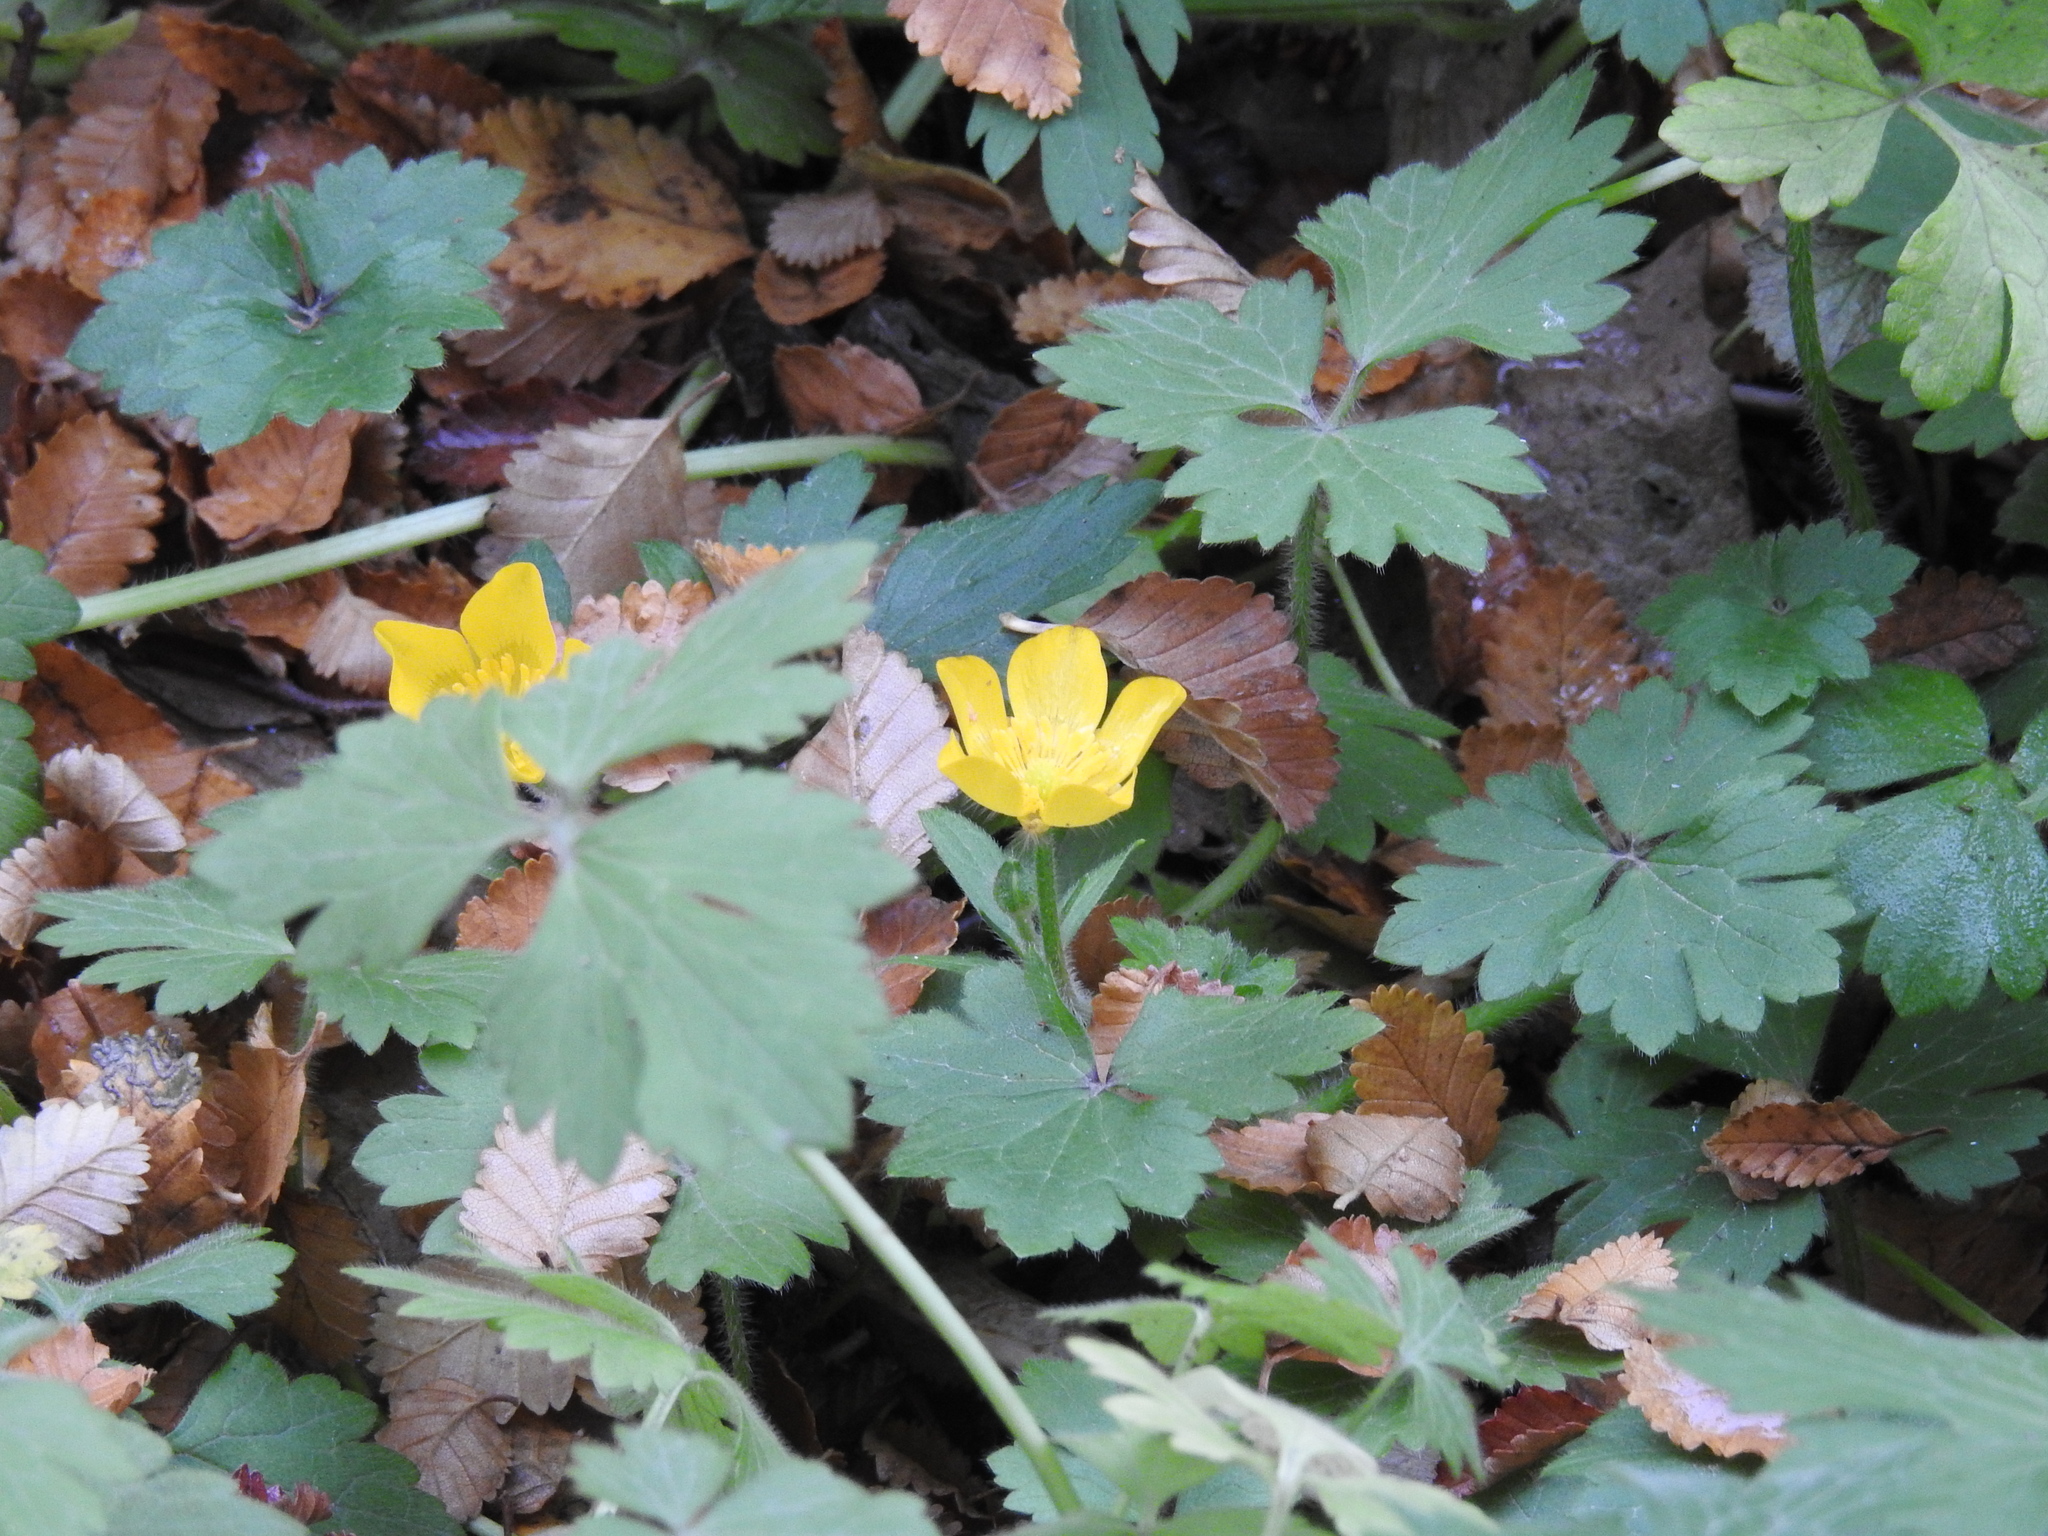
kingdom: Plantae
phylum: Tracheophyta
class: Magnoliopsida
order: Ranunculales
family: Ranunculaceae
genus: Ranunculus
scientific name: Ranunculus repens
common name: Creeping buttercup
